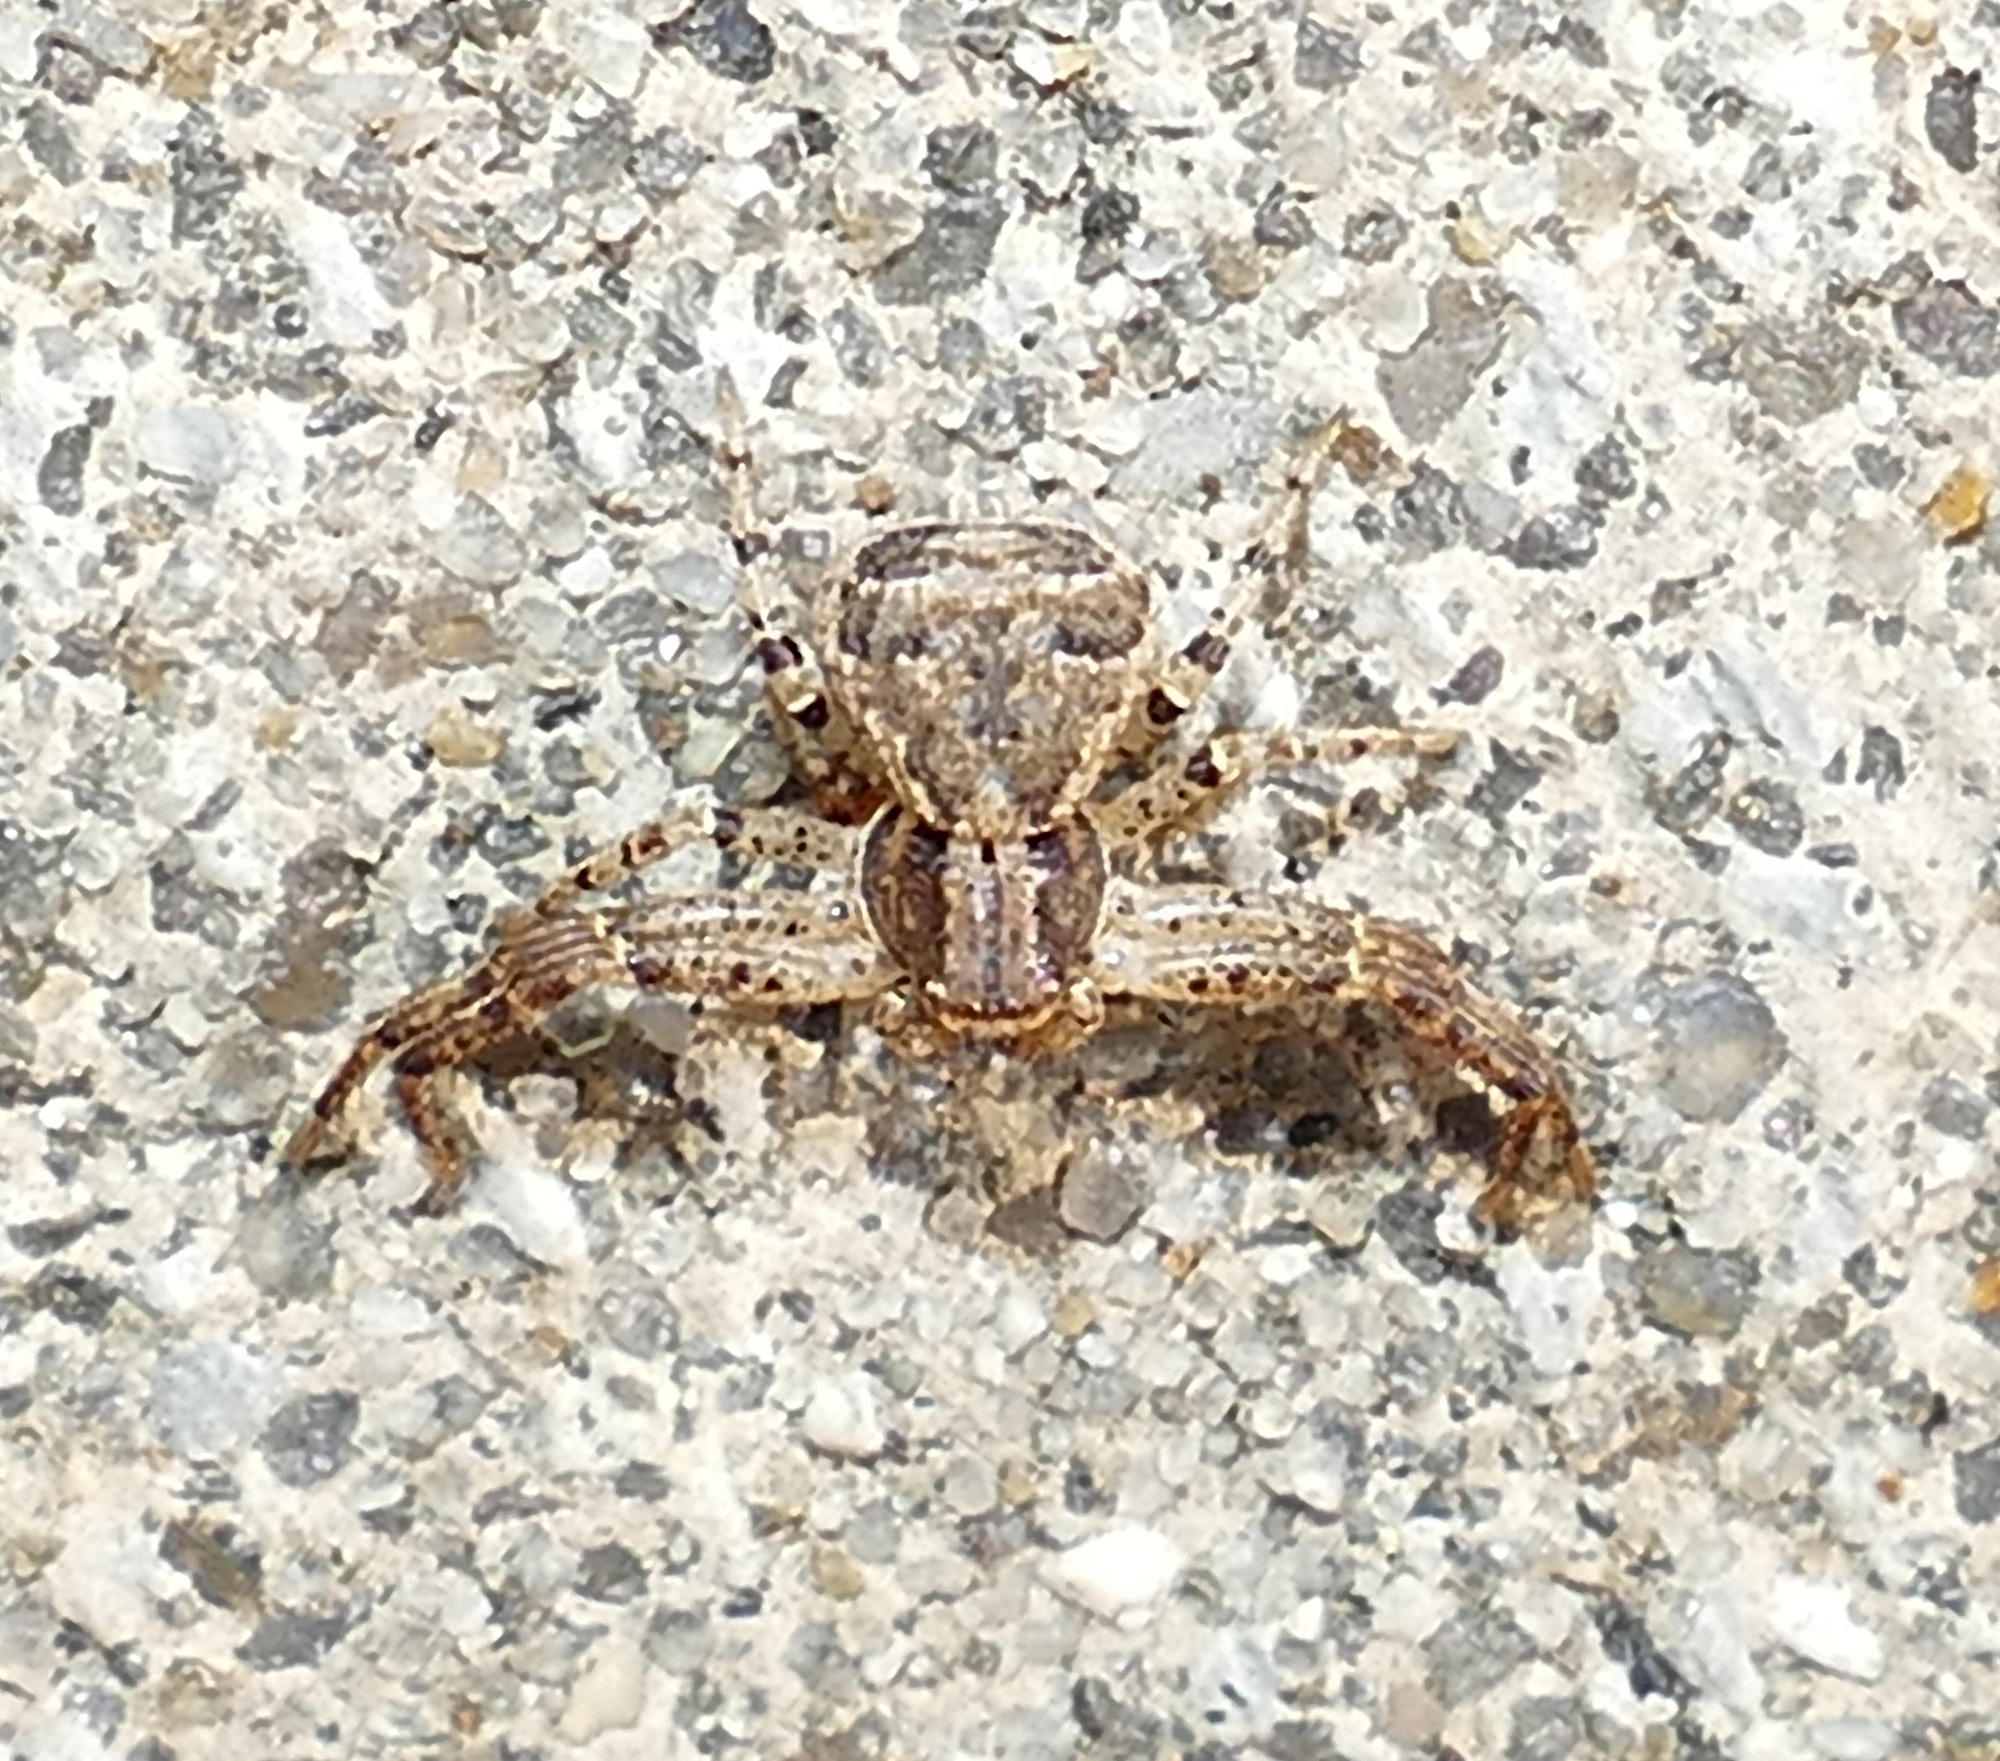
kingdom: Animalia
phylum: Arthropoda
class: Arachnida
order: Araneae
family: Thomisidae
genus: Xysticus
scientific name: Xysticus ferox
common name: Tan crab spider
